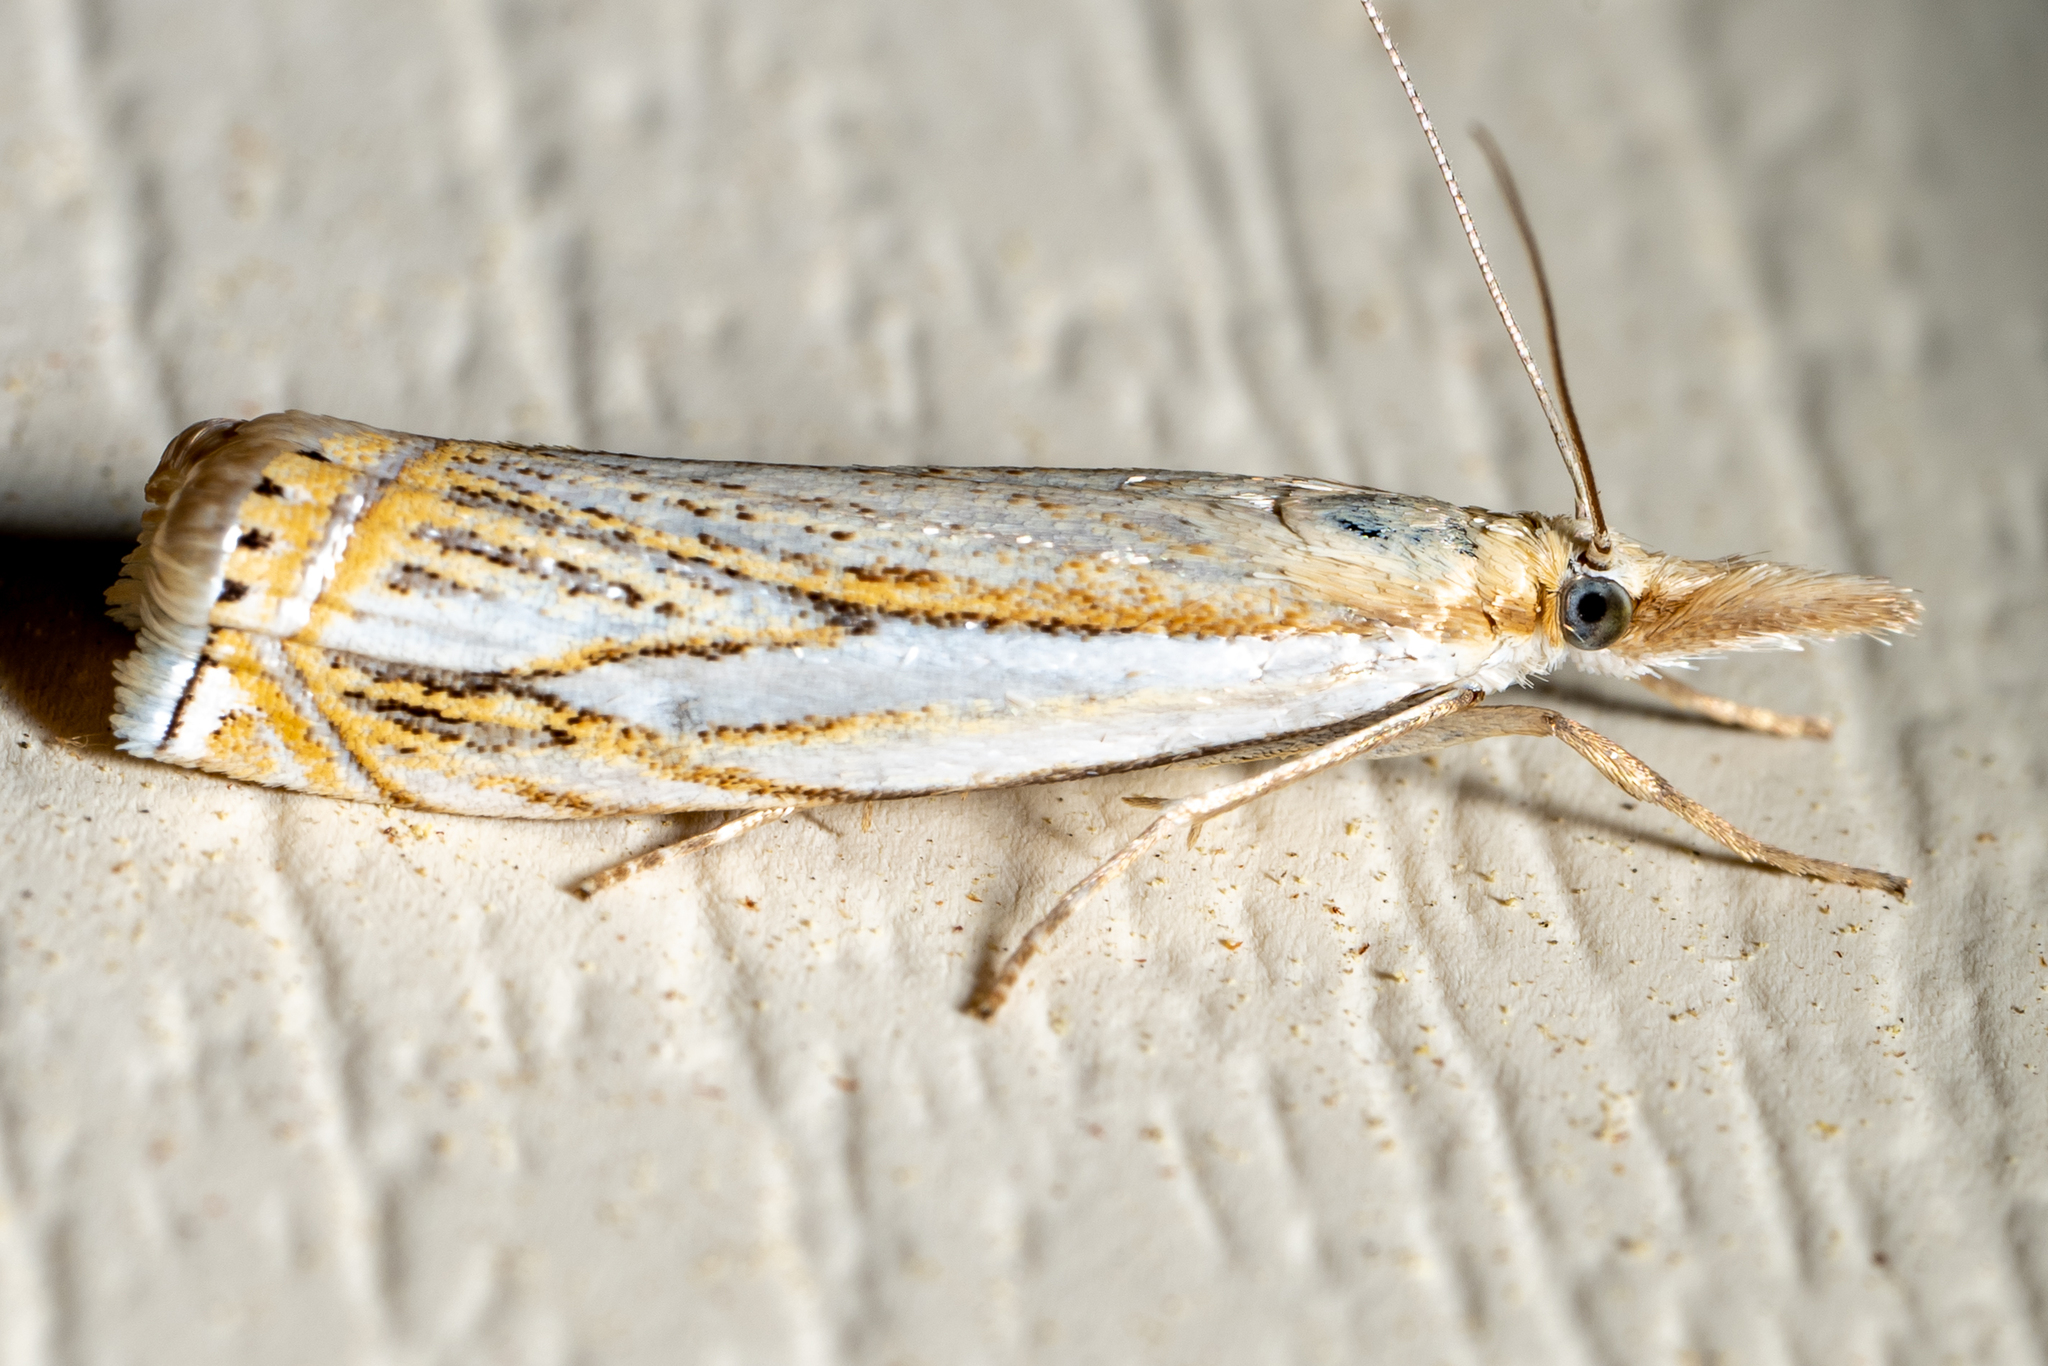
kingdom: Animalia
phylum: Arthropoda
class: Insecta
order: Lepidoptera
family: Crambidae
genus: Crambus
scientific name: Crambus saltuellus
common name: Pasture grass-veneer
